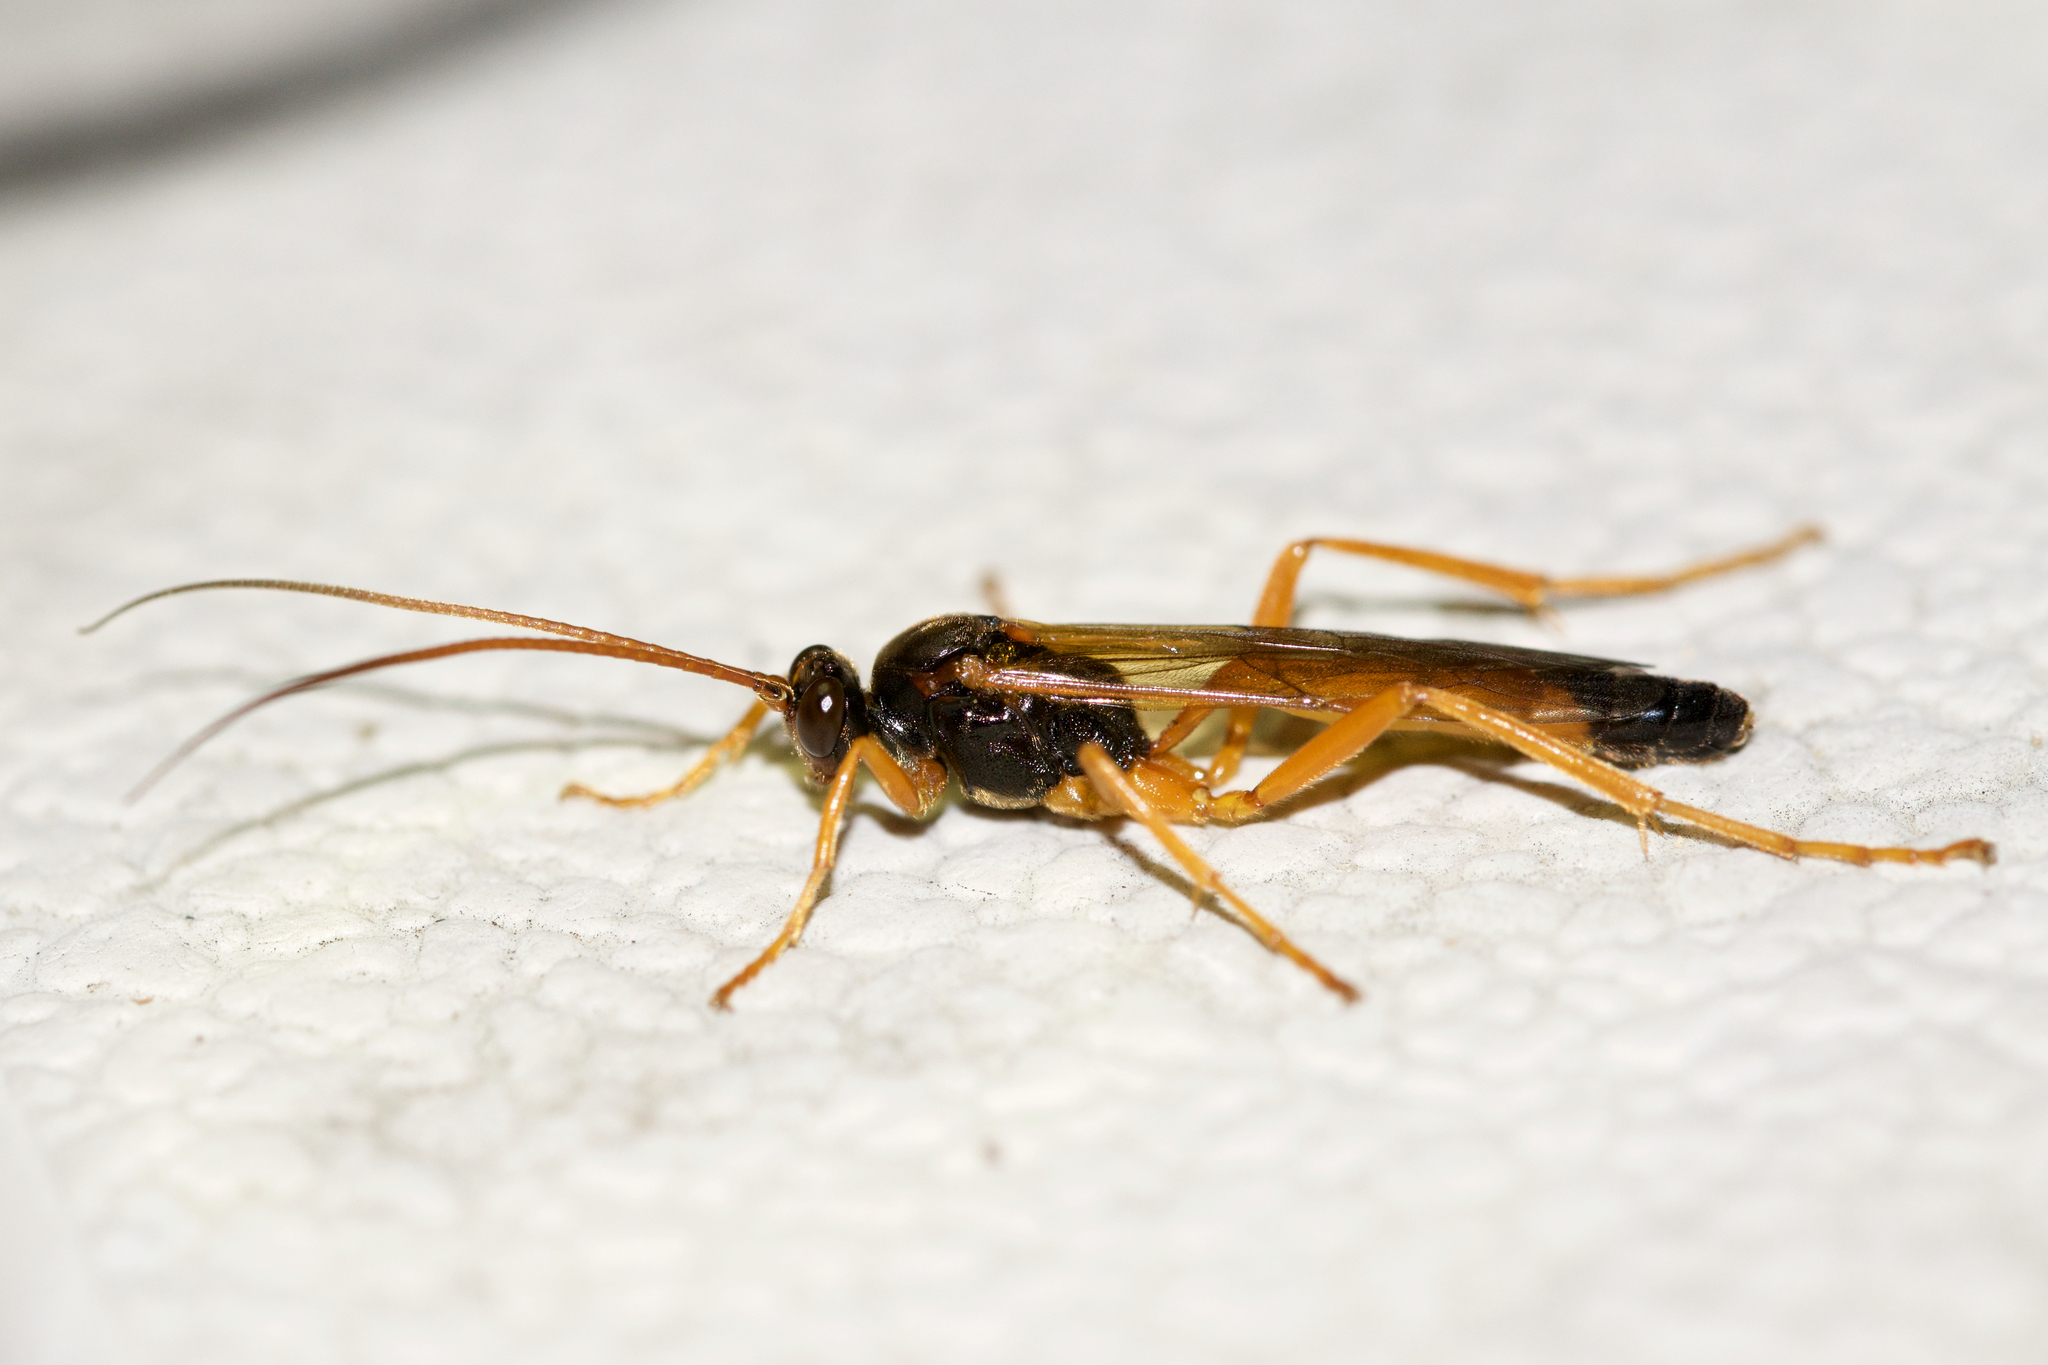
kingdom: Animalia
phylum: Arthropoda
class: Insecta
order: Hymenoptera
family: Ichneumonidae
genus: Neamblymorpha
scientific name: Neamblymorpha milva
